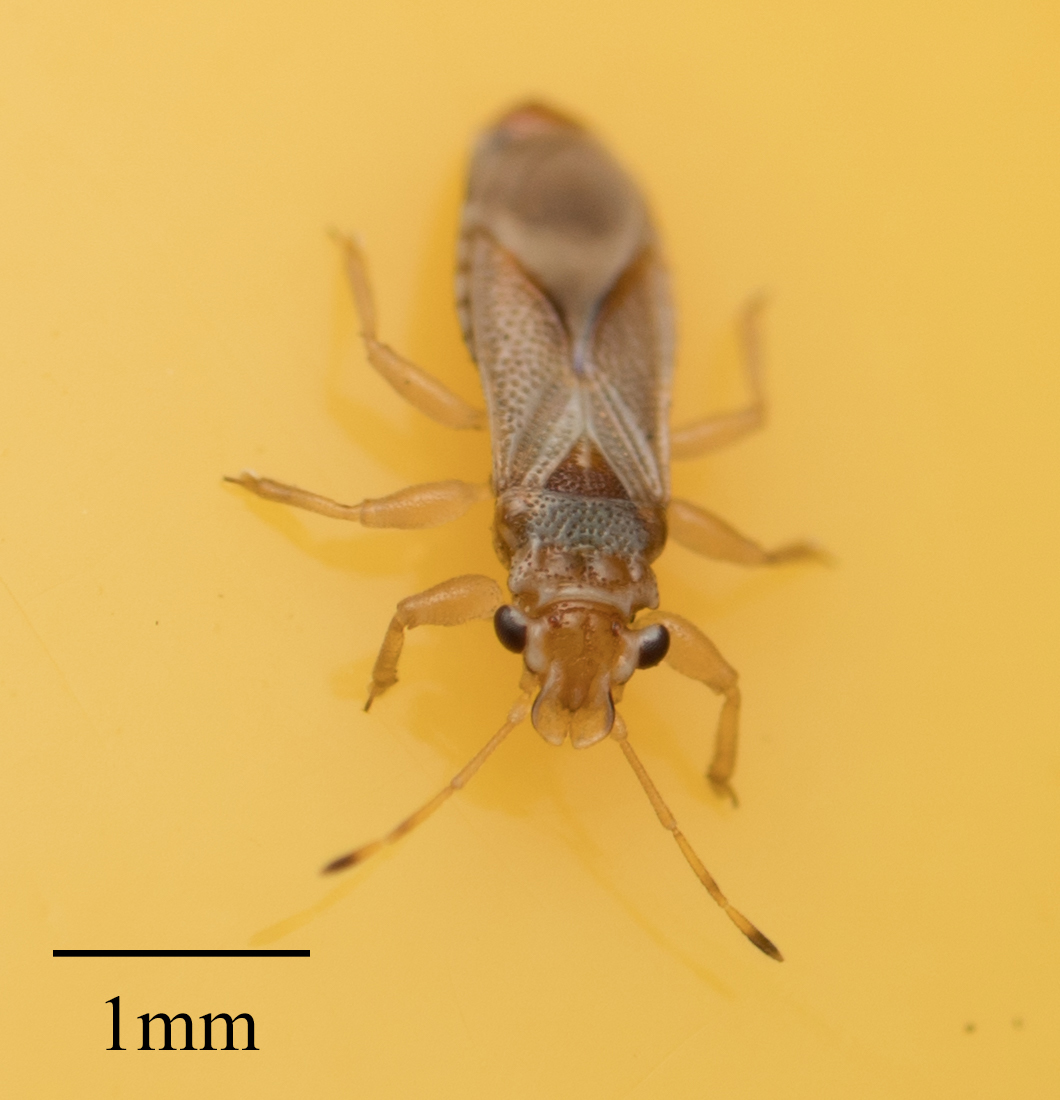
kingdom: Animalia
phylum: Arthropoda
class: Insecta
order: Hemiptera
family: Thaumastocoridae
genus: Thaumastocoris
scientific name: Thaumastocoris peregrinus
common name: Bronze bug
